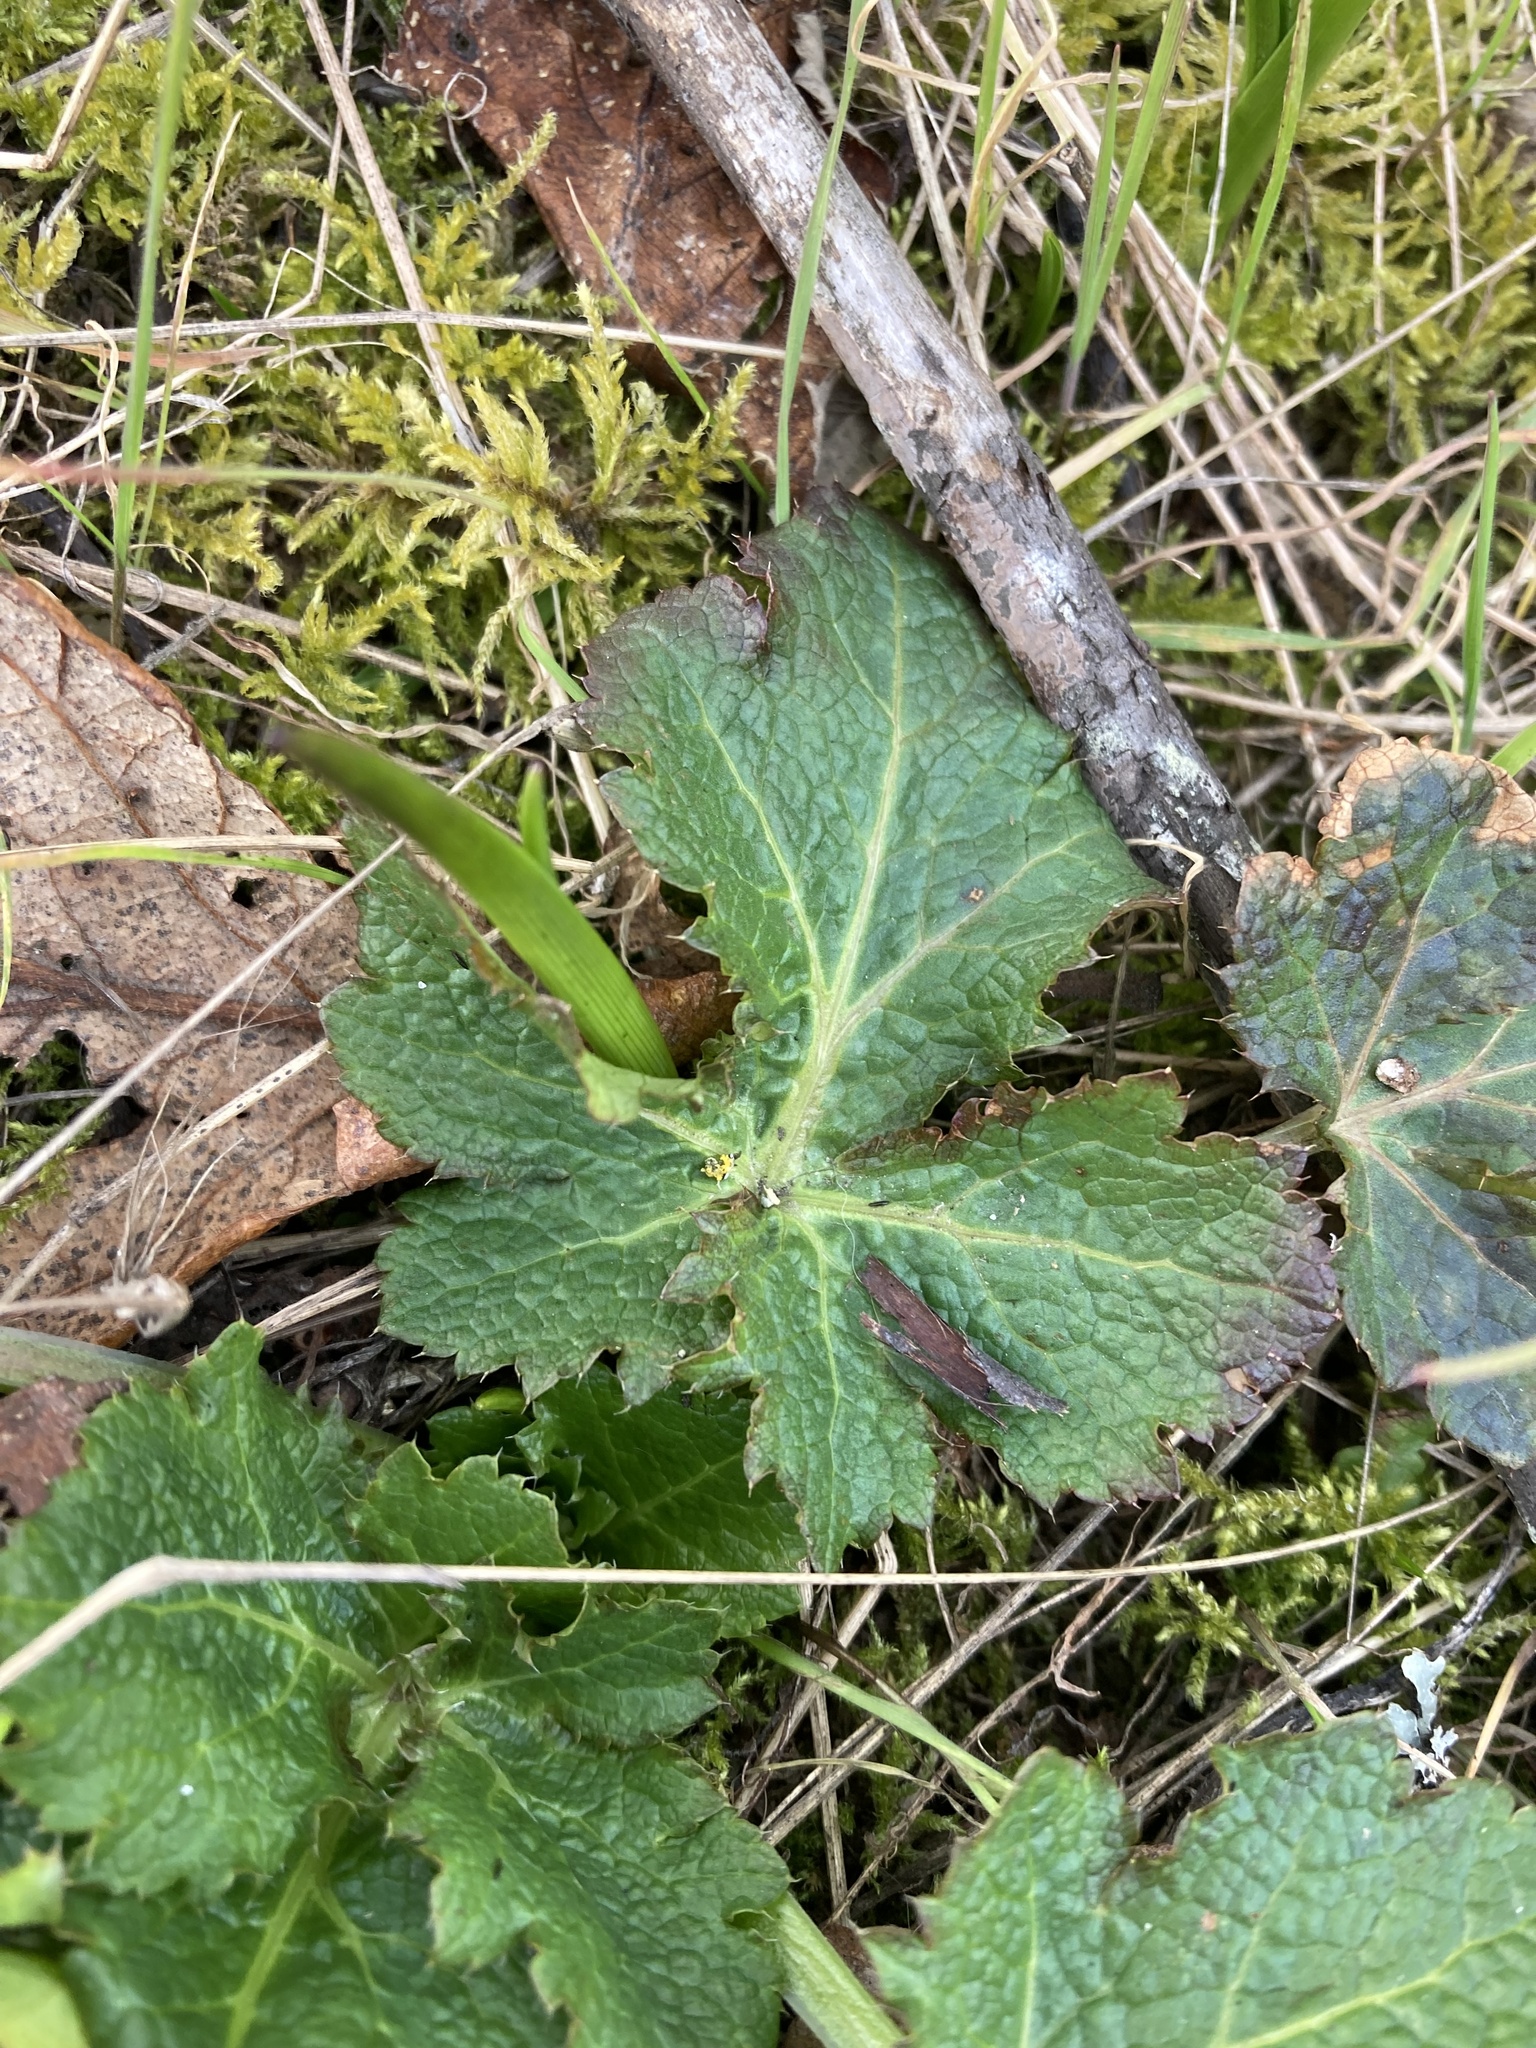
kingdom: Plantae
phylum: Tracheophyta
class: Magnoliopsida
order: Apiales
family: Apiaceae
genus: Sanicula
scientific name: Sanicula crassicaulis
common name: Western snakeroot
